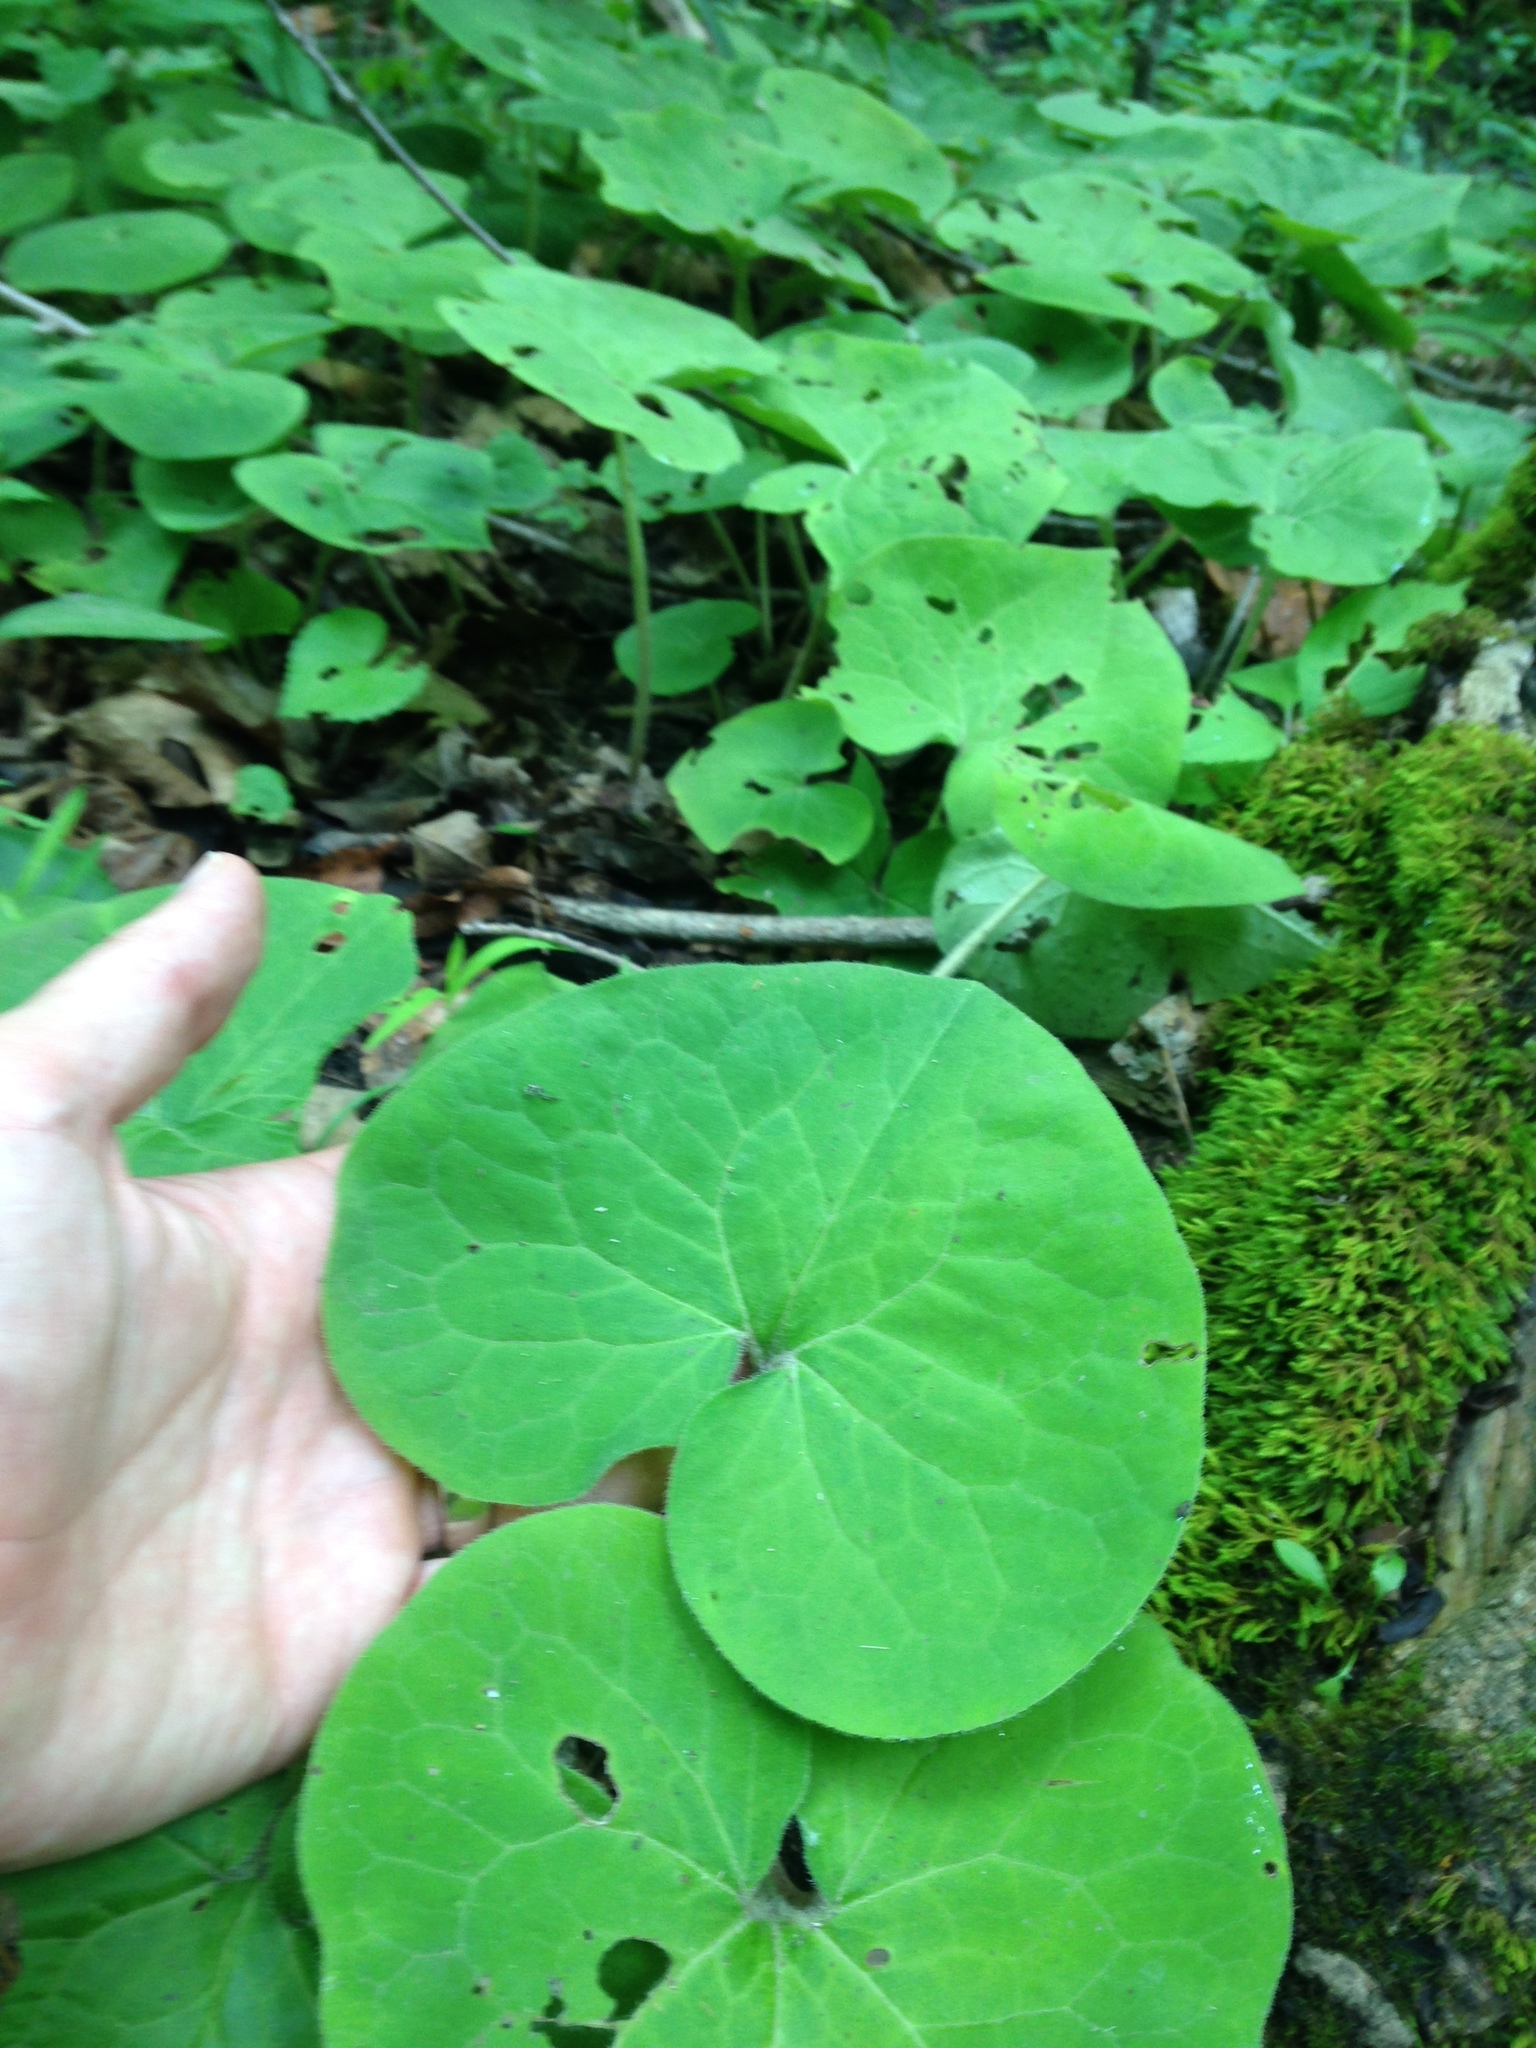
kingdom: Plantae
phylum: Tracheophyta
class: Magnoliopsida
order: Piperales
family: Aristolochiaceae
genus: Asarum
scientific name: Asarum canadense
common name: Wild ginger
